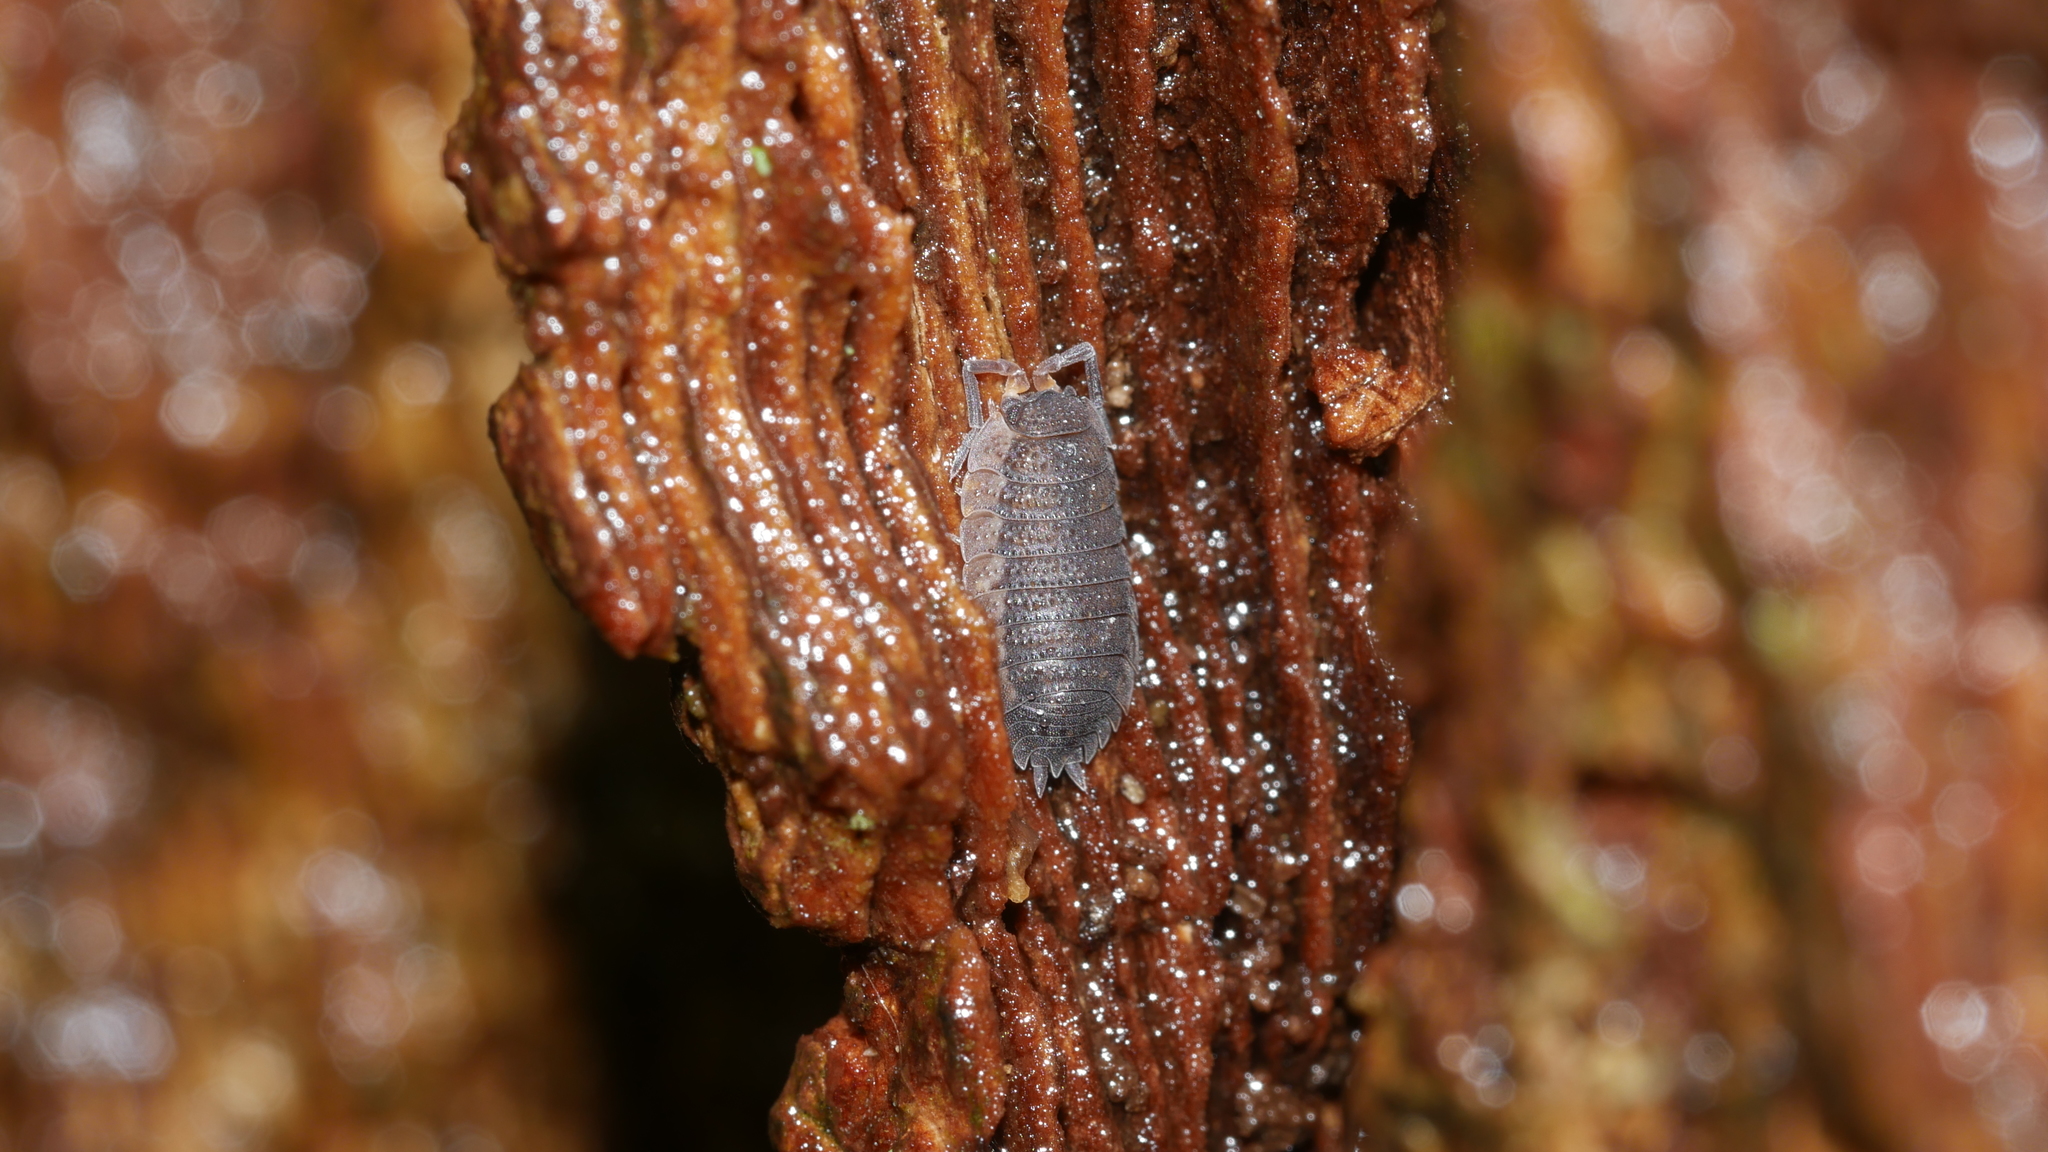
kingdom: Animalia
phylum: Arthropoda
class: Malacostraca
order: Isopoda
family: Porcellionidae
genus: Porcellio
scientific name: Porcellio scaber
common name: Common rough woodlouse
